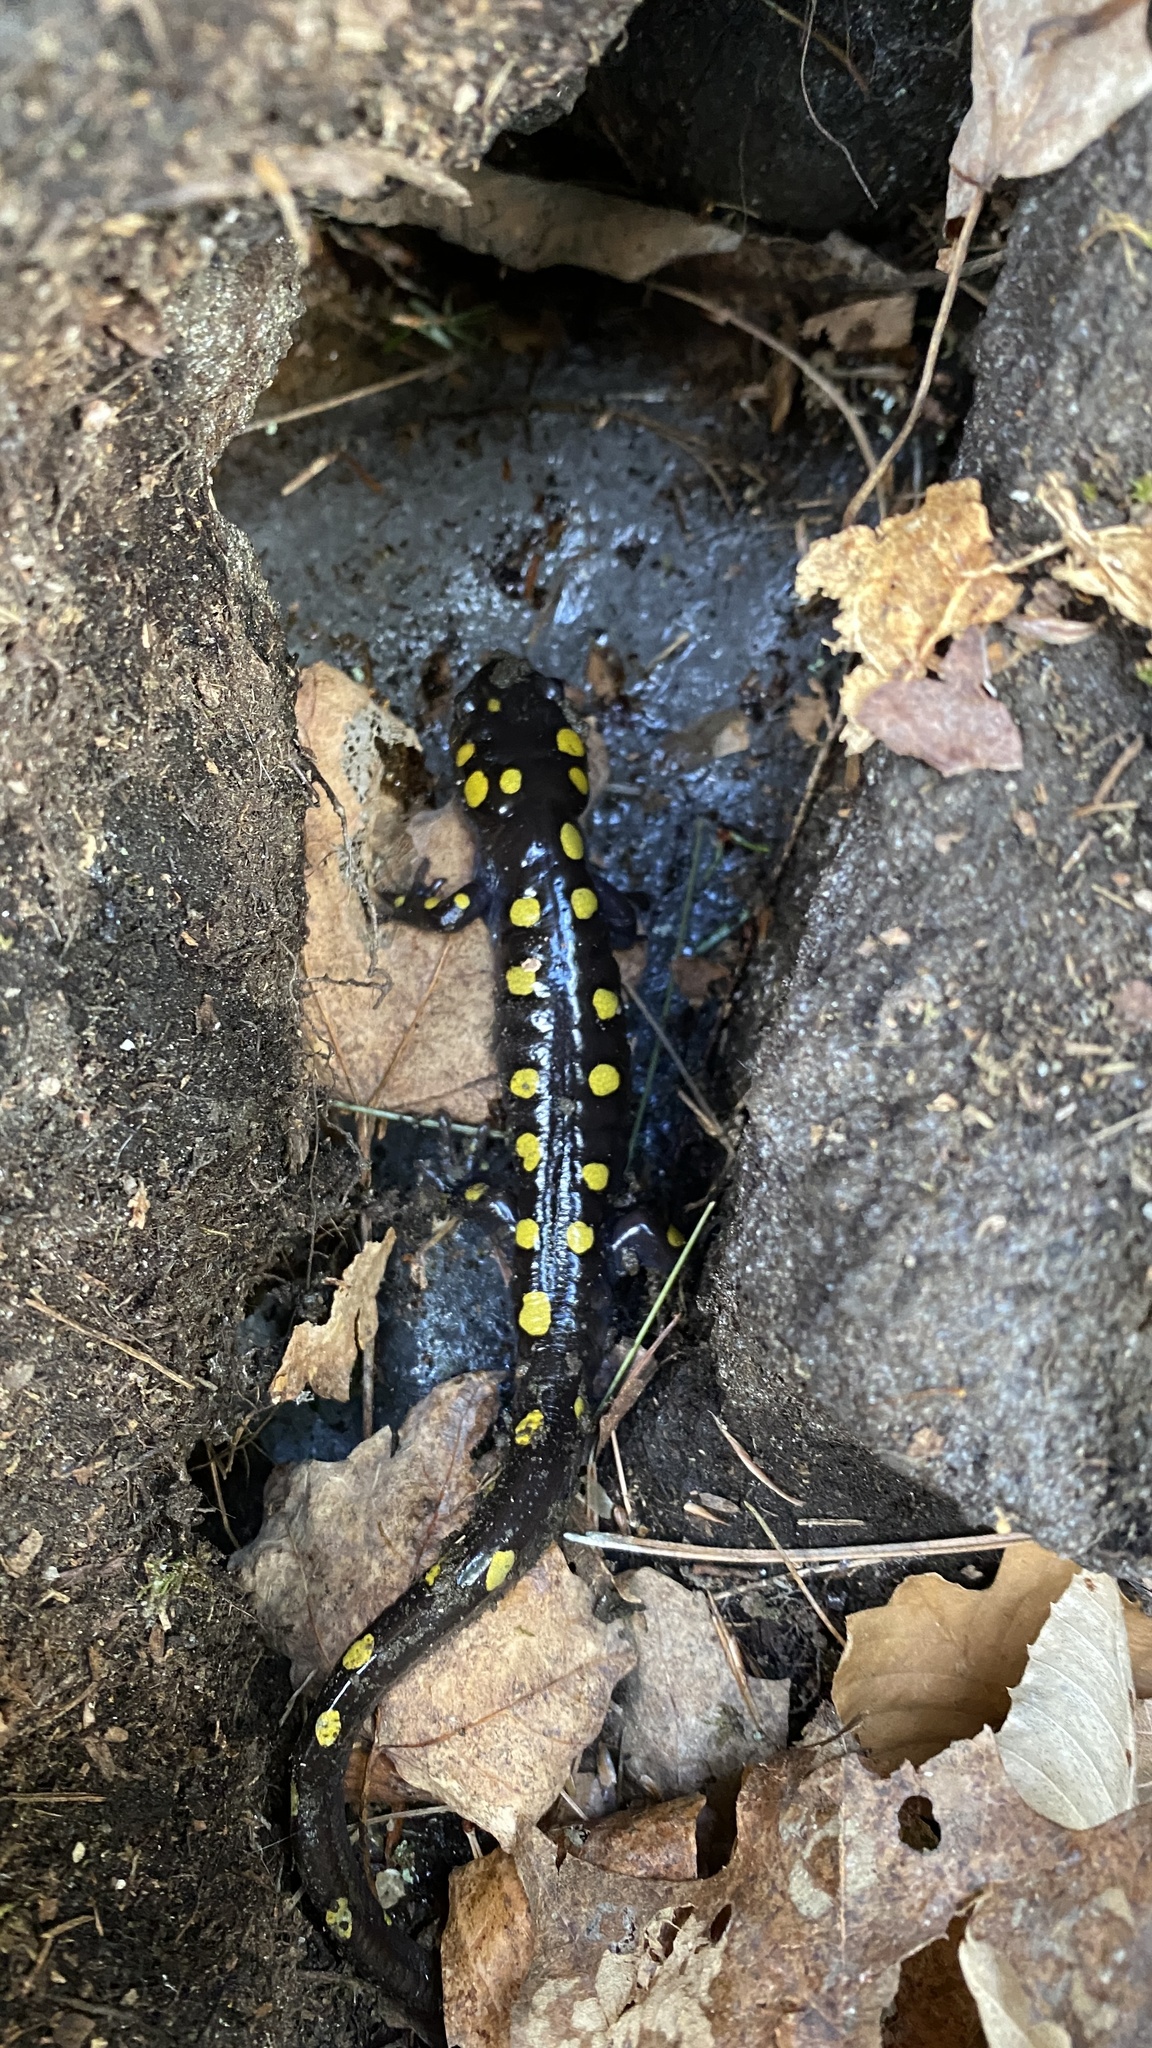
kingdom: Animalia
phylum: Chordata
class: Amphibia
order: Caudata
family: Ambystomatidae
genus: Ambystoma
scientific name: Ambystoma maculatum
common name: Spotted salamander
